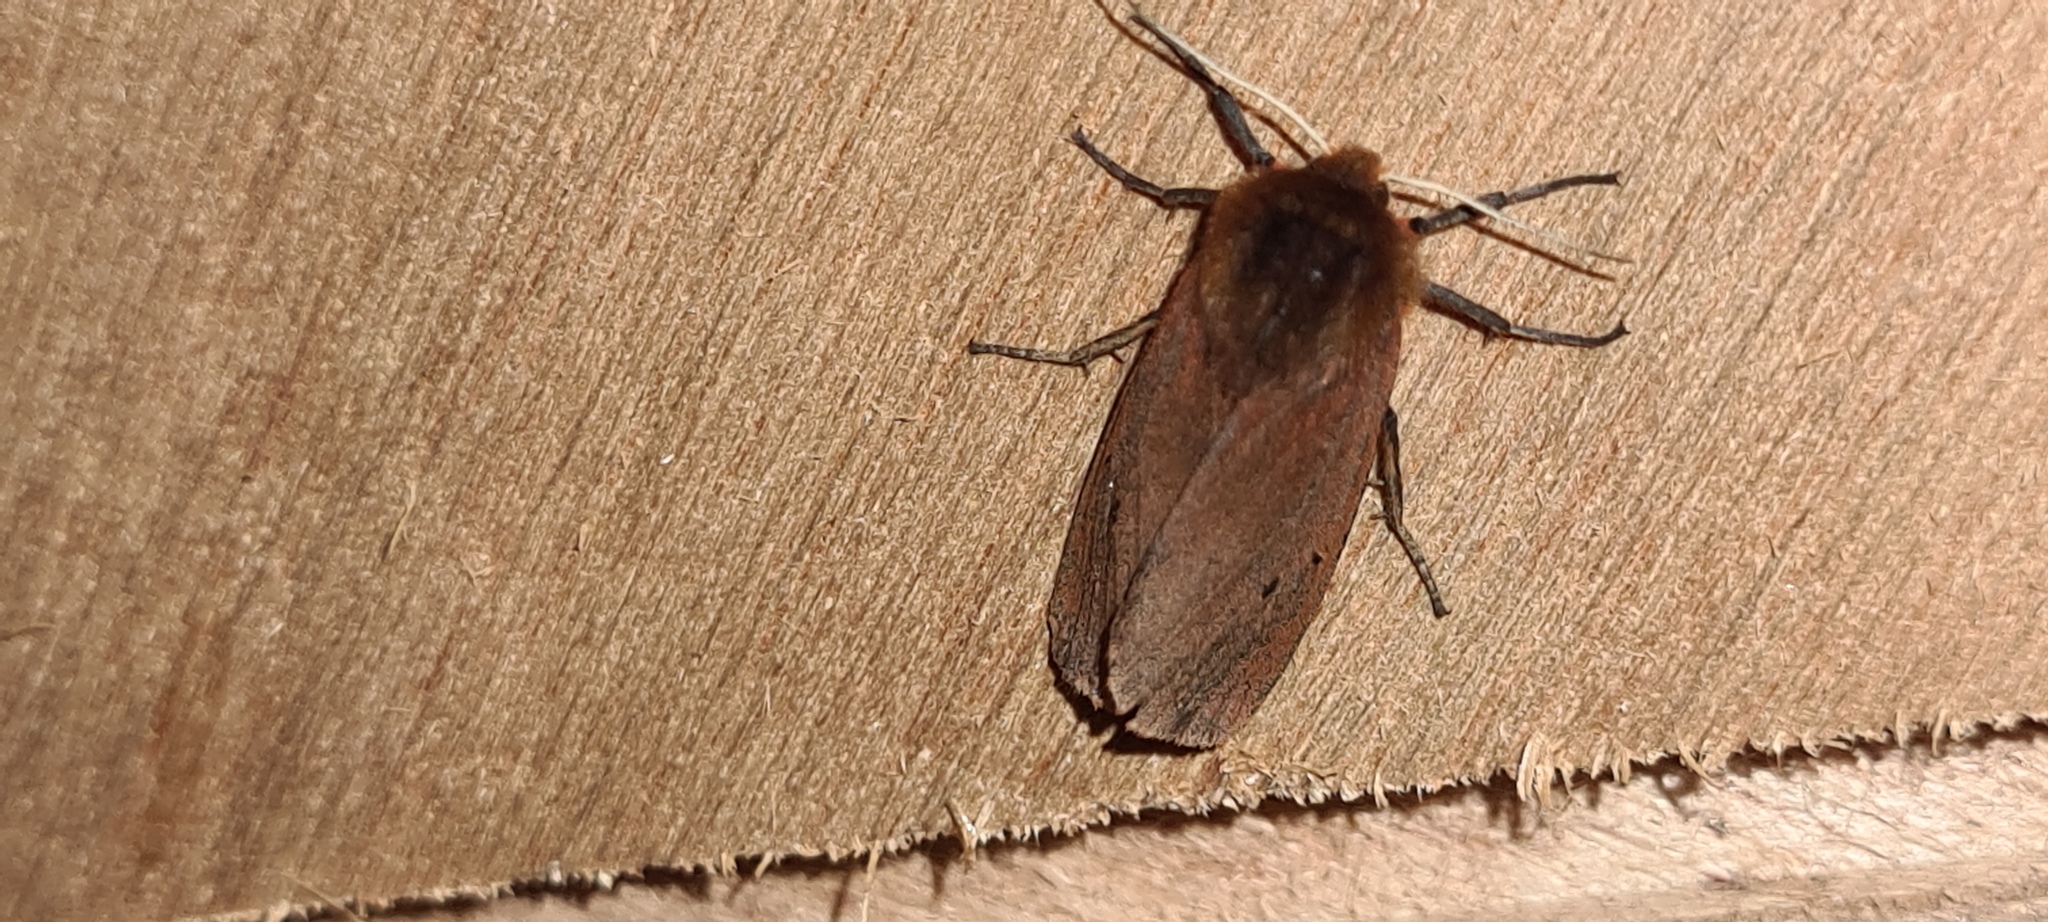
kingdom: Animalia
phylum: Arthropoda
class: Insecta
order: Lepidoptera
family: Erebidae
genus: Phragmatobia
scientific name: Phragmatobia fuliginosa
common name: Ruby tiger
